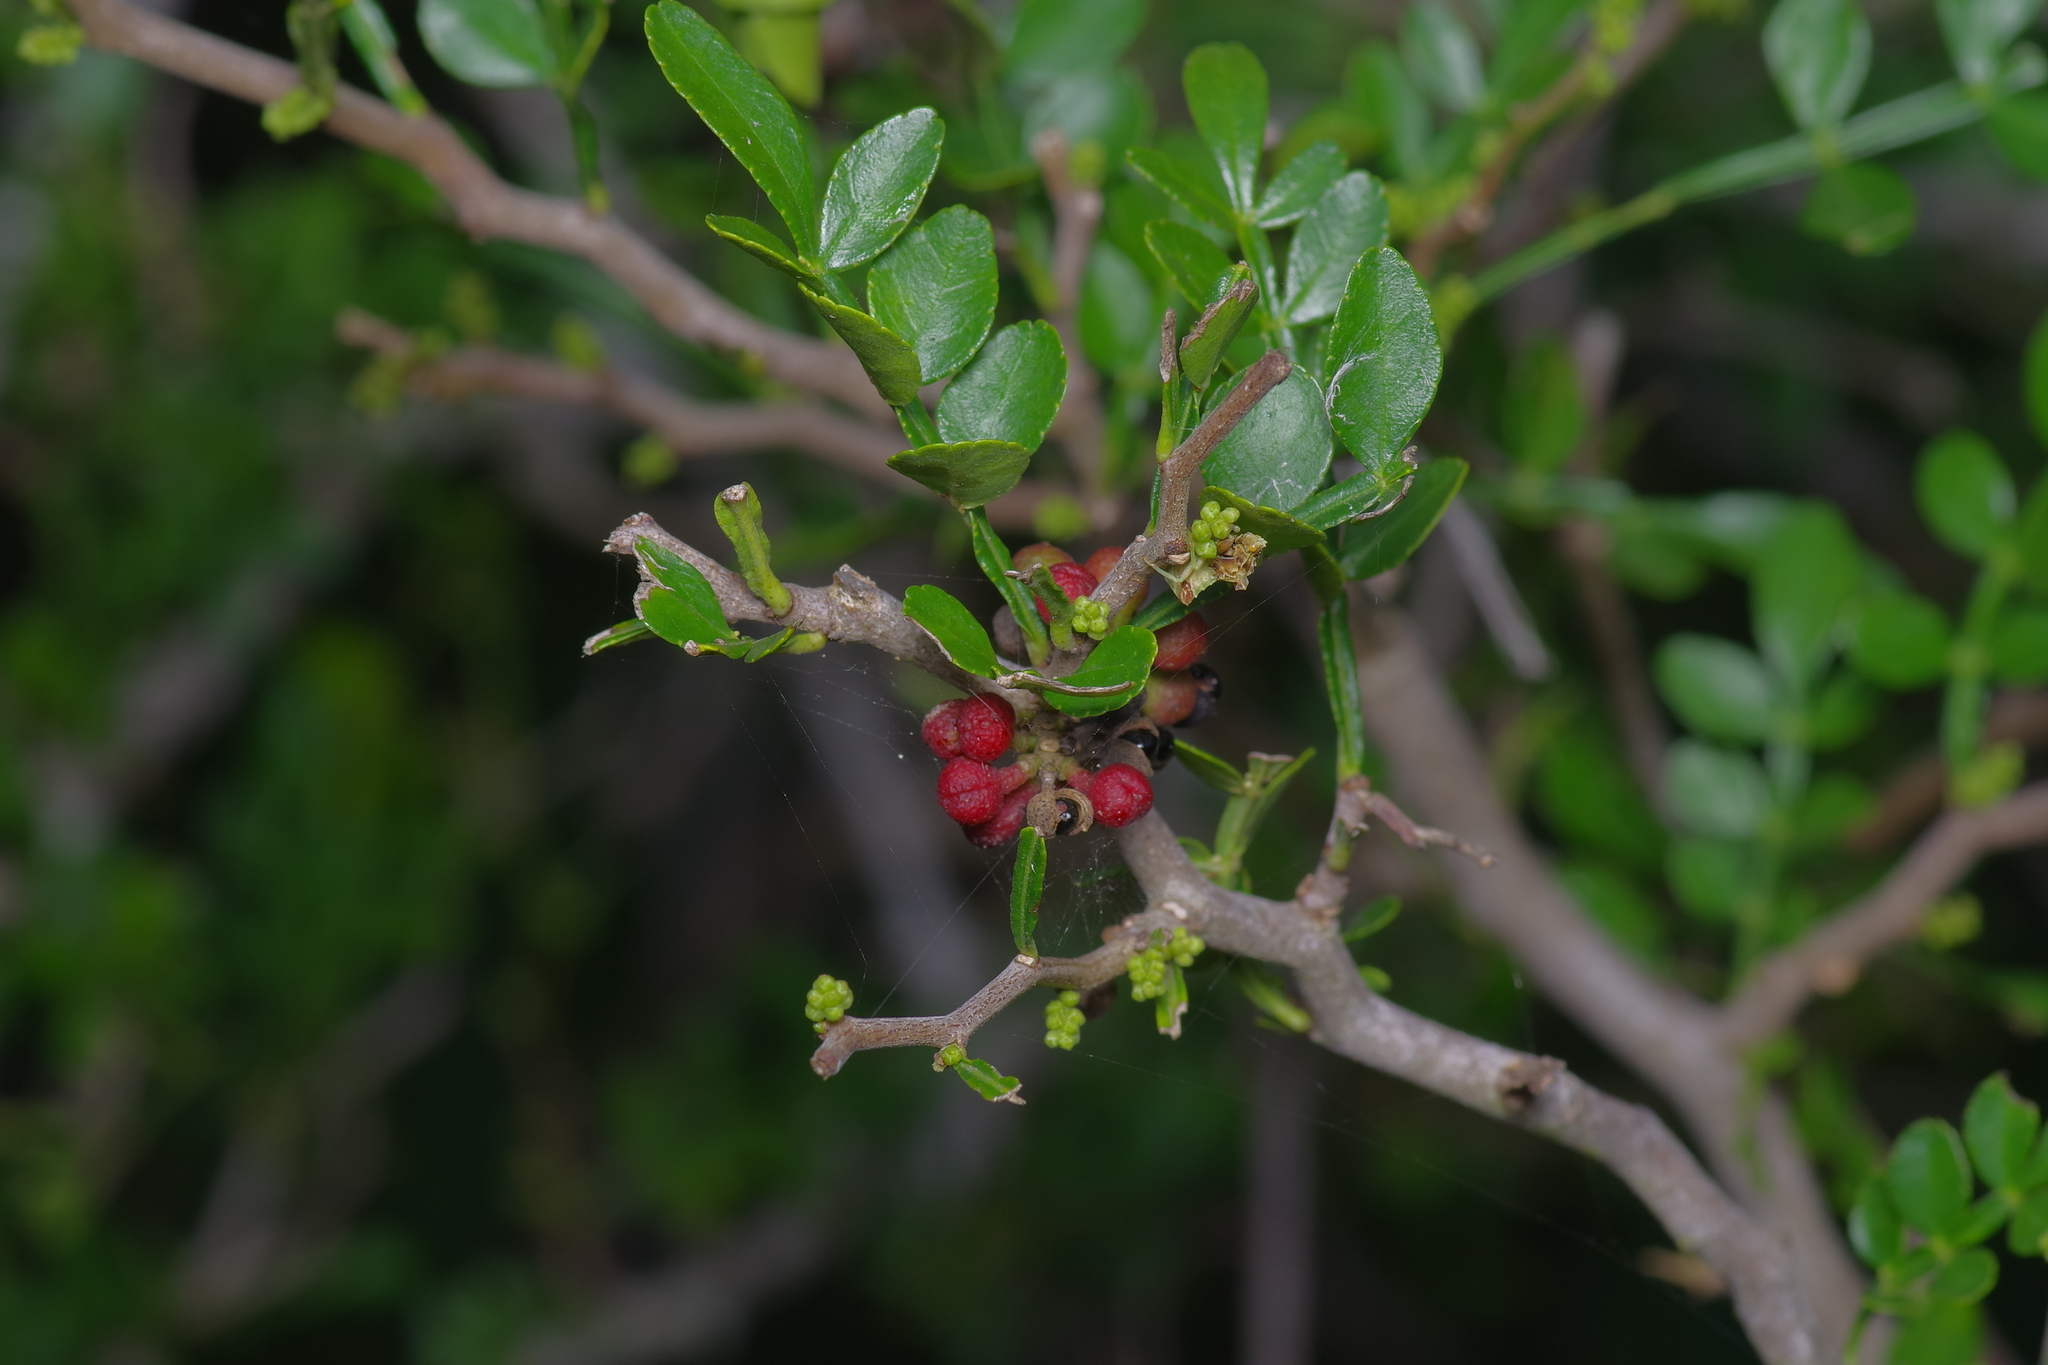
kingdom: Plantae
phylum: Tracheophyta
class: Magnoliopsida
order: Sapindales
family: Rutaceae
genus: Zanthoxylum
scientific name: Zanthoxylum fagara
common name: Lime prickly-ash
